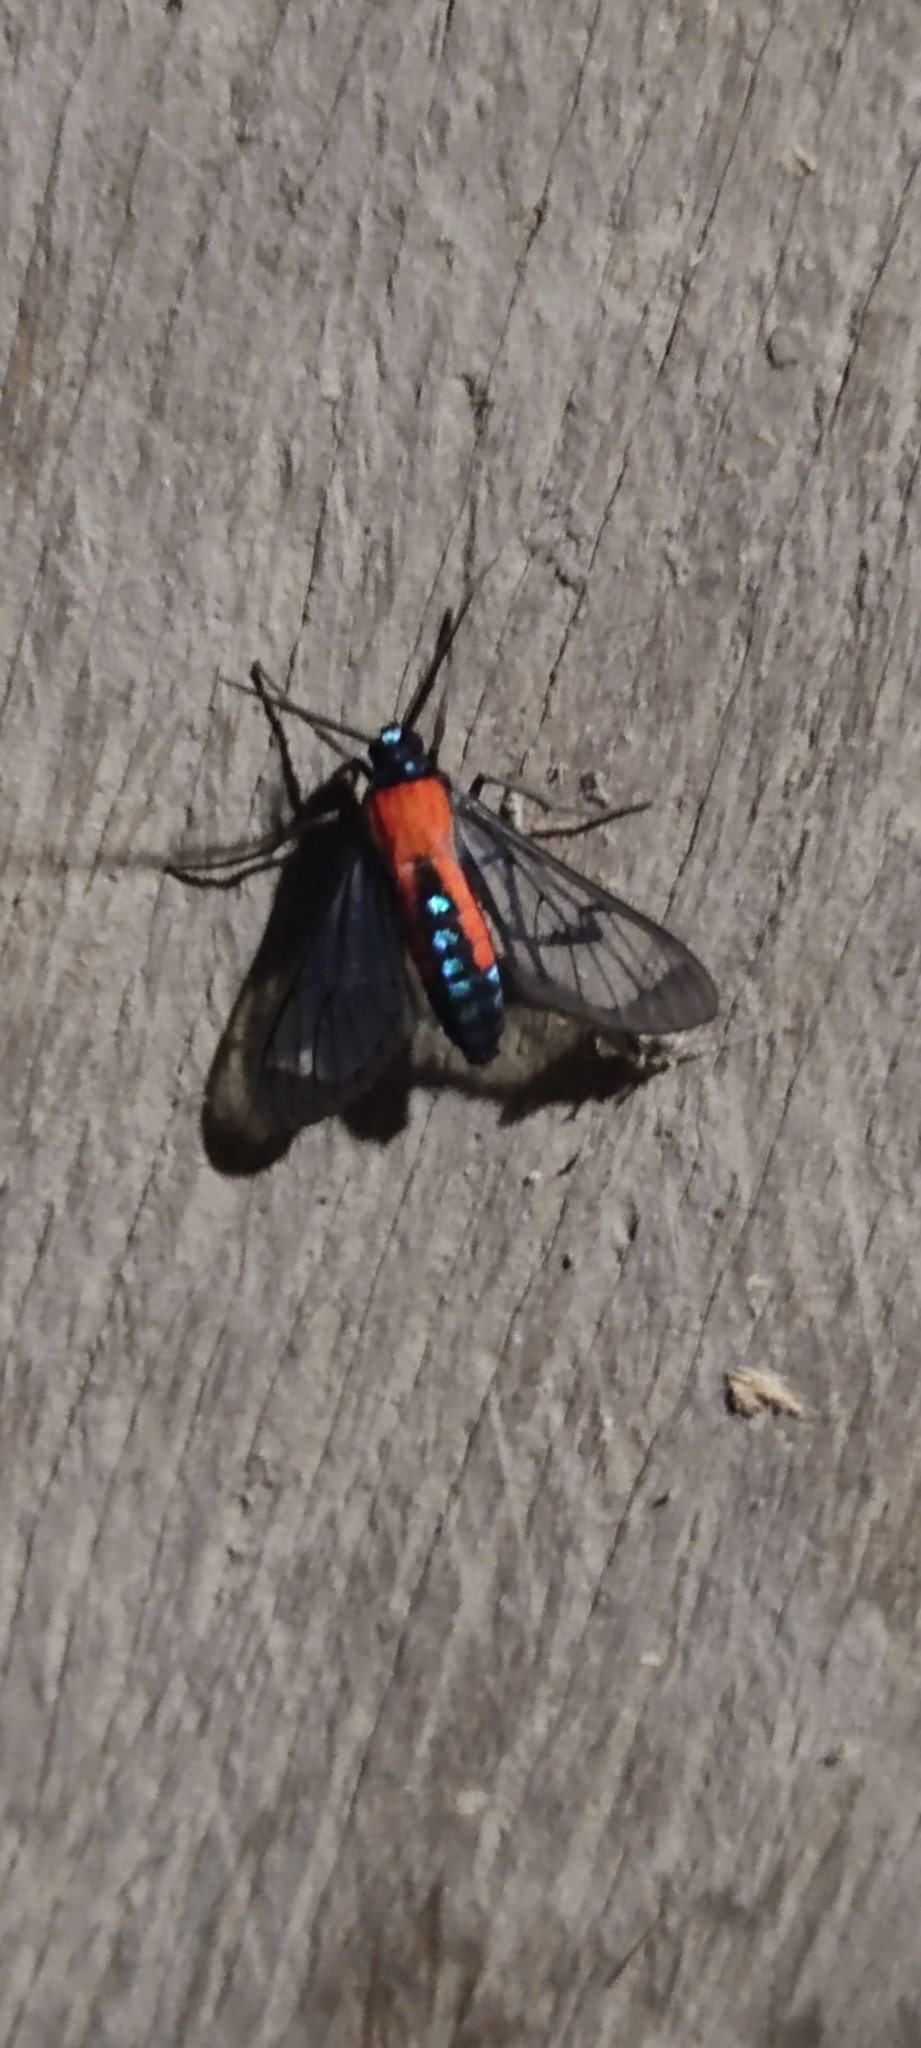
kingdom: Animalia
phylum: Arthropoda
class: Insecta
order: Lepidoptera
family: Erebidae
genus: Cosmosoma
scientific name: Cosmosoma oroyana
